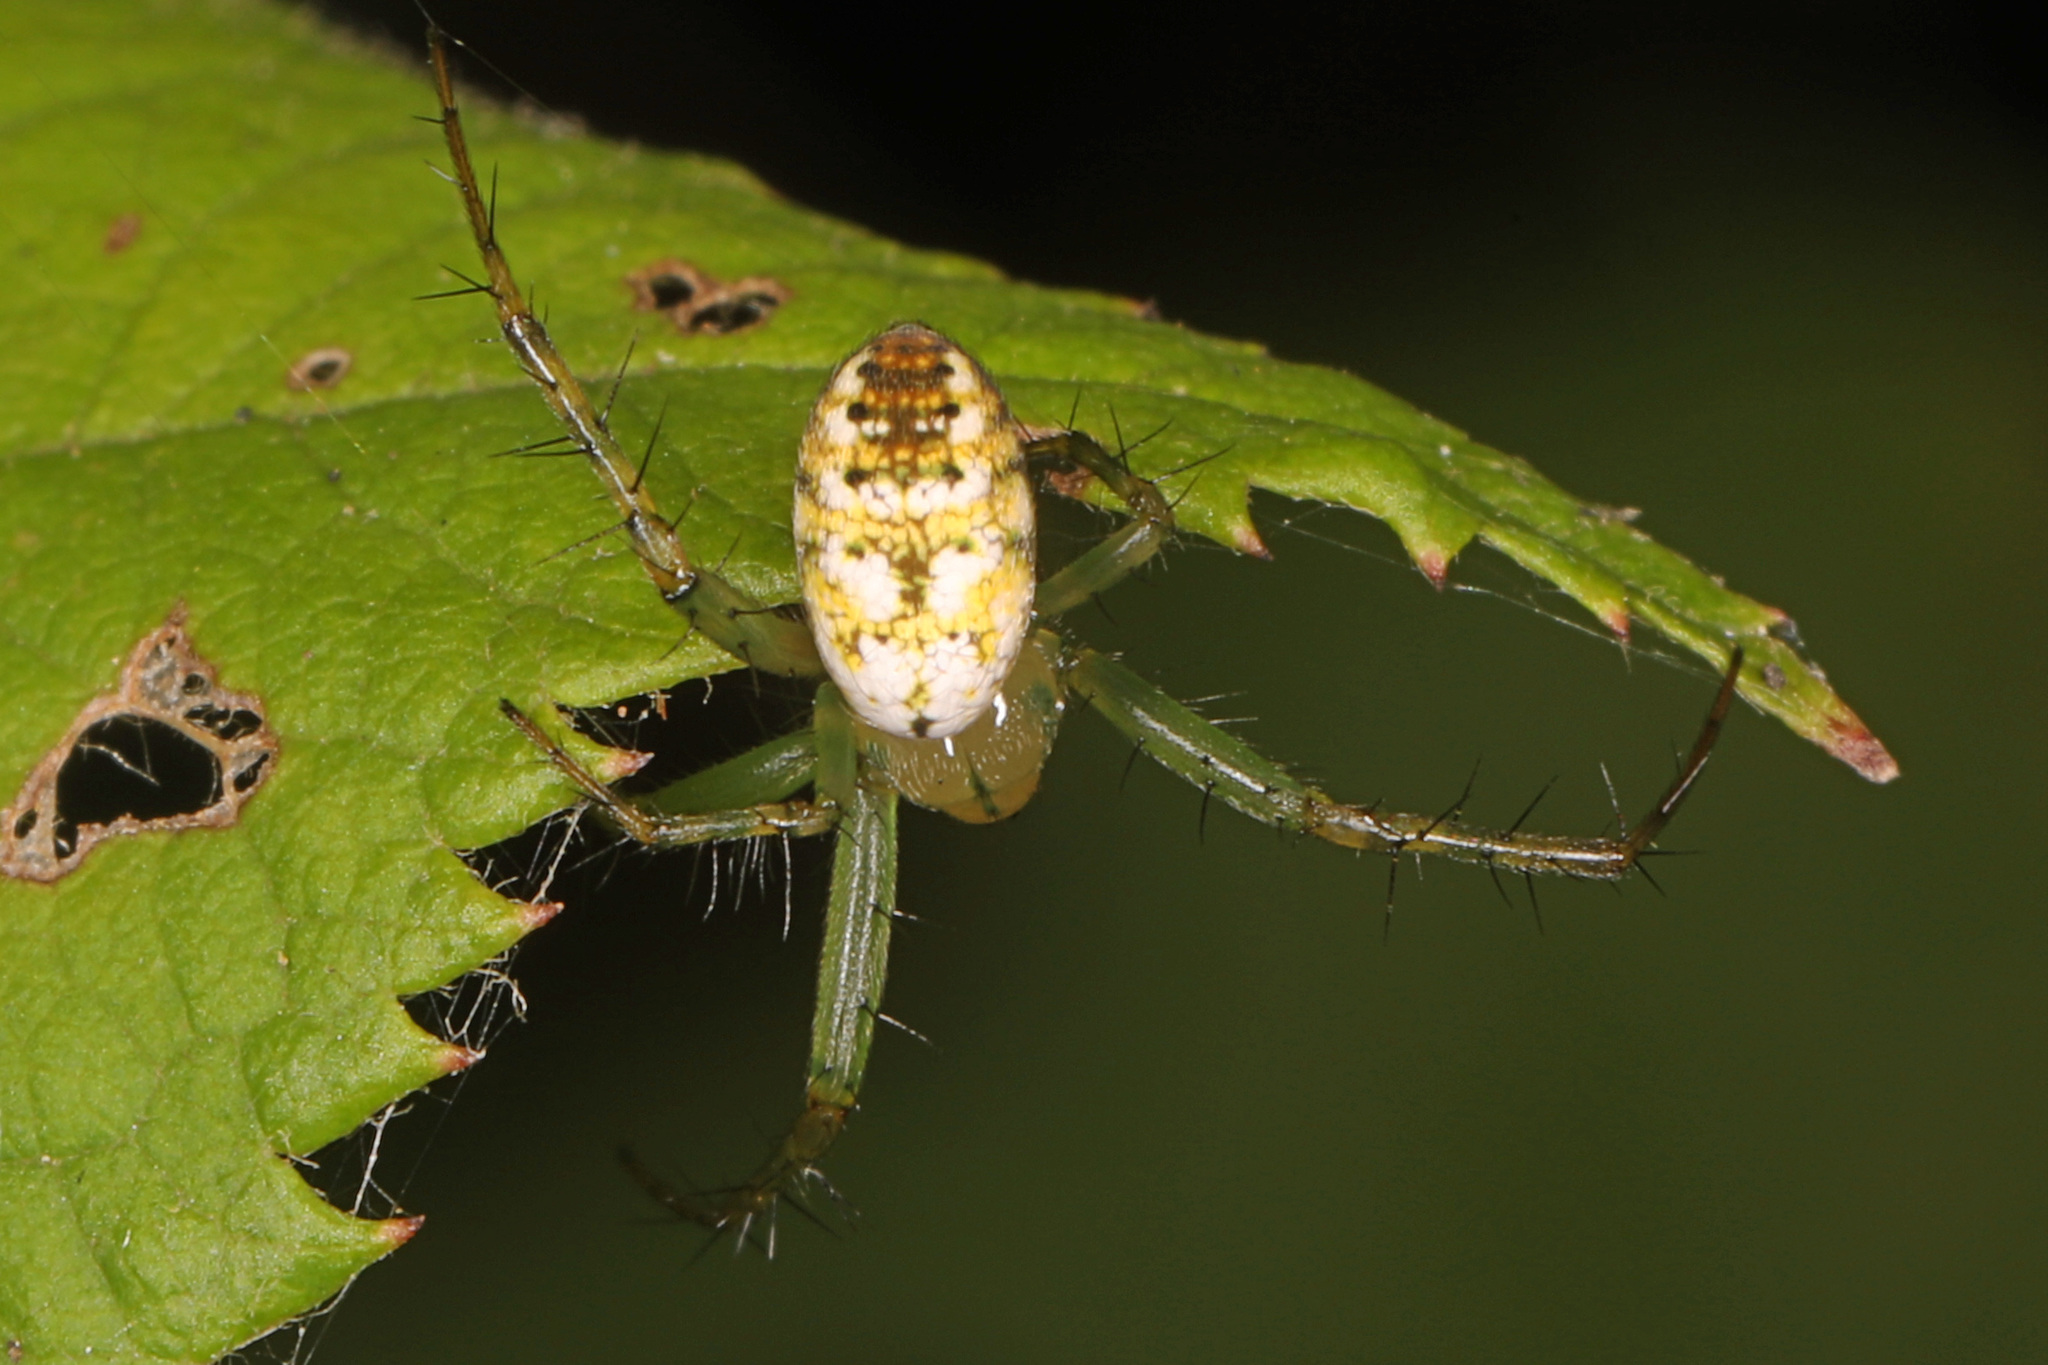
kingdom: Animalia
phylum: Arthropoda
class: Arachnida
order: Araneae
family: Araneidae
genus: Mangora
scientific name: Mangora spiculata
